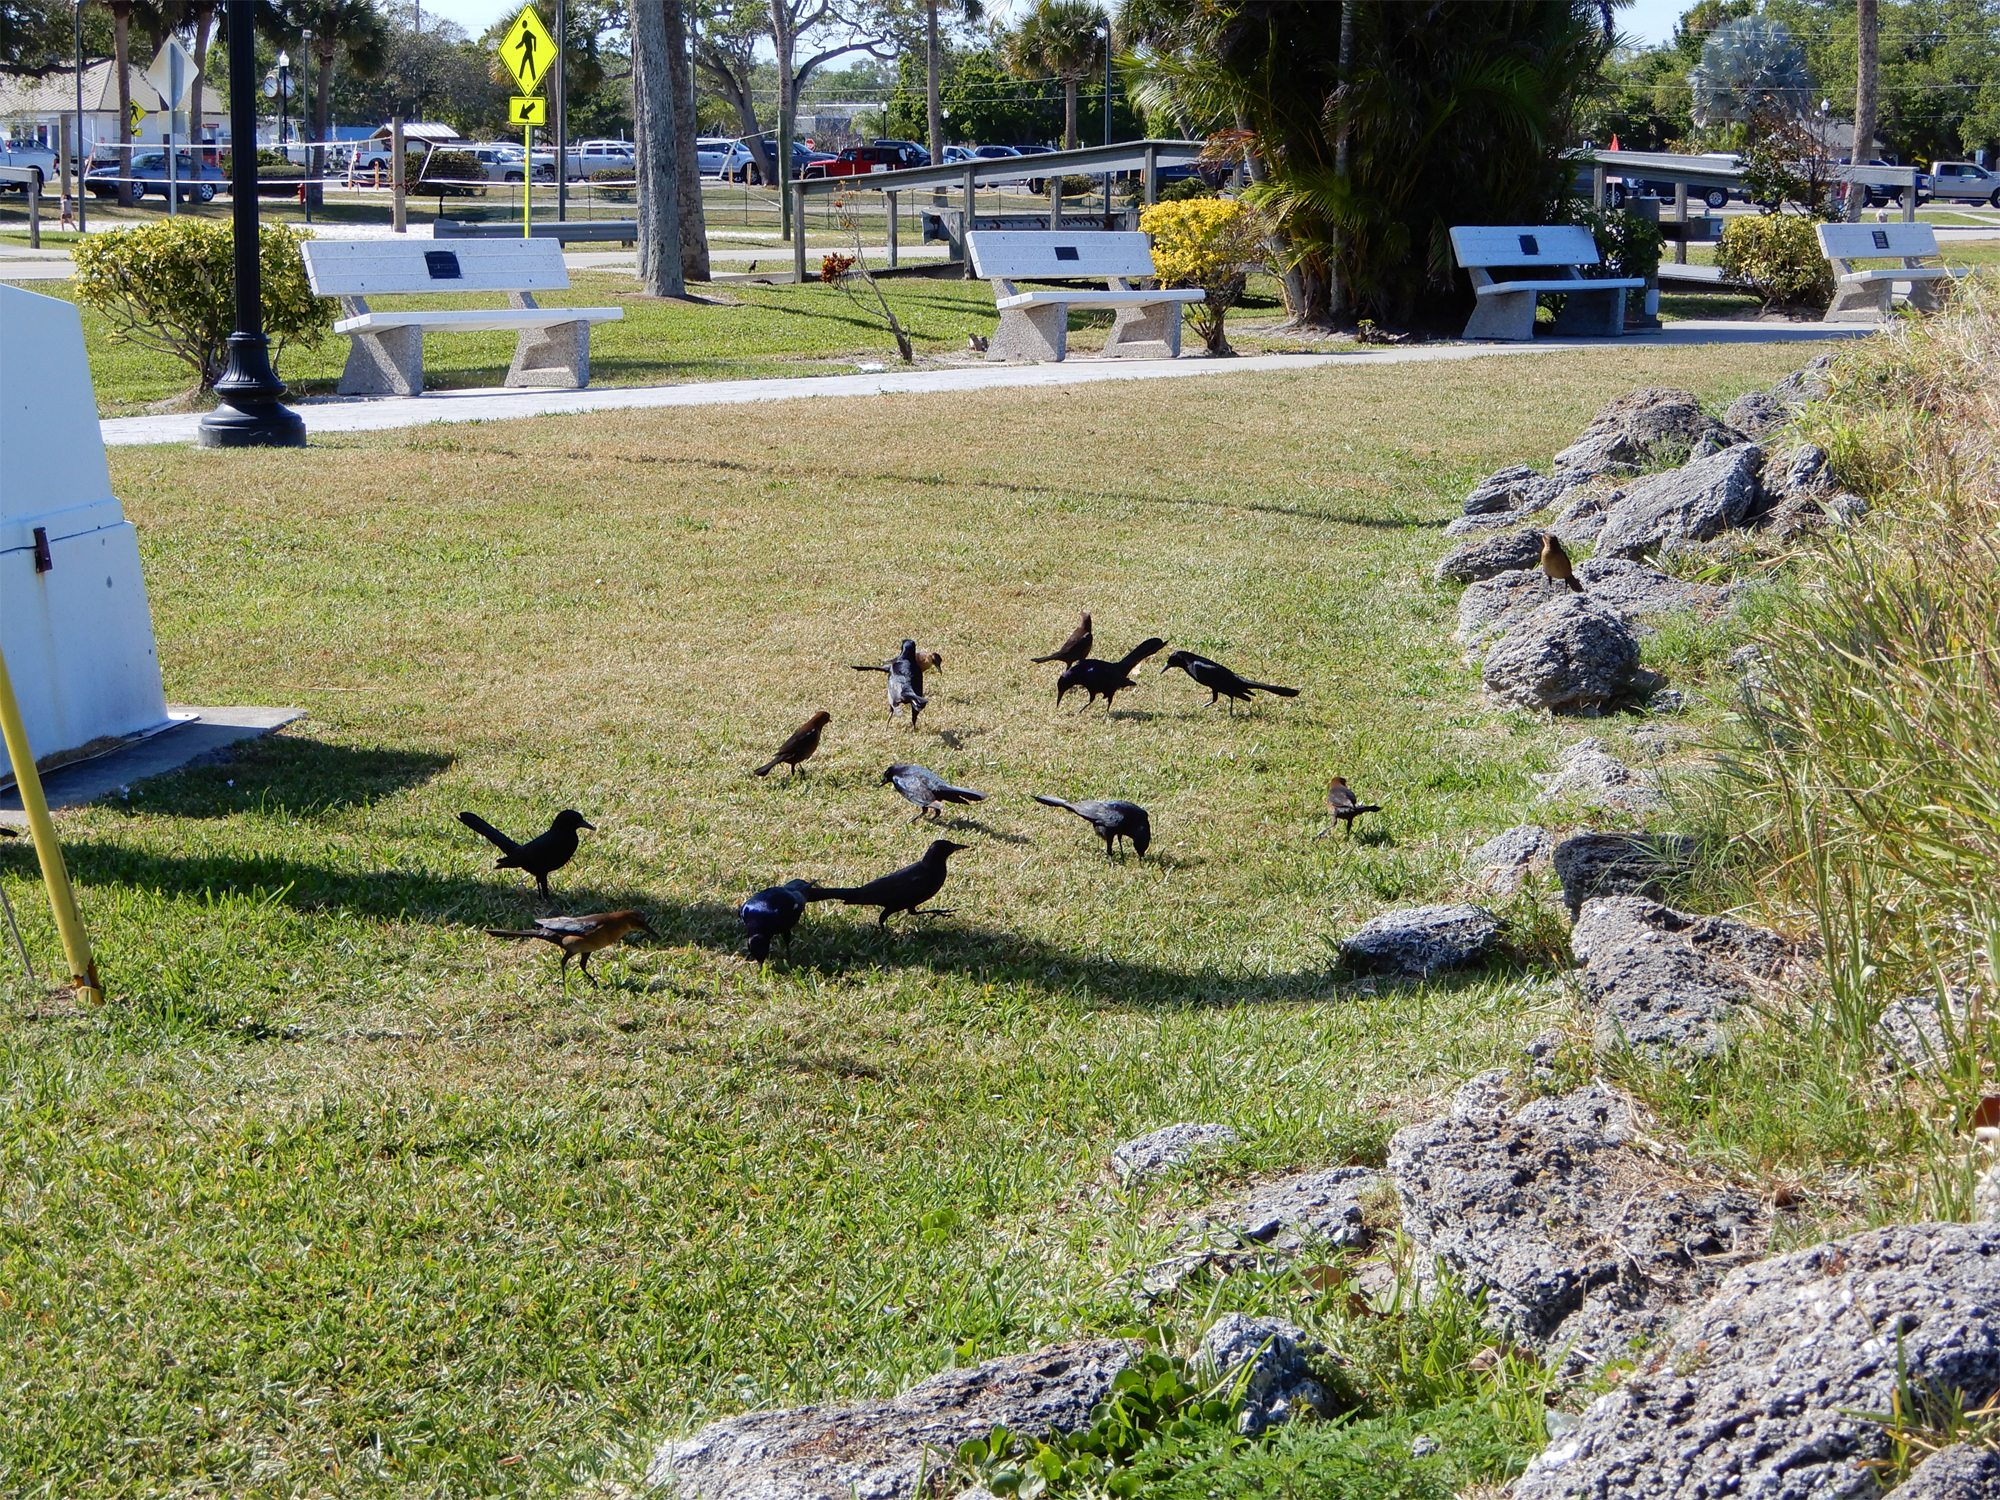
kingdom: Animalia
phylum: Chordata
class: Aves
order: Passeriformes
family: Icteridae
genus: Quiscalus
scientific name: Quiscalus major
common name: Boat-tailed grackle
